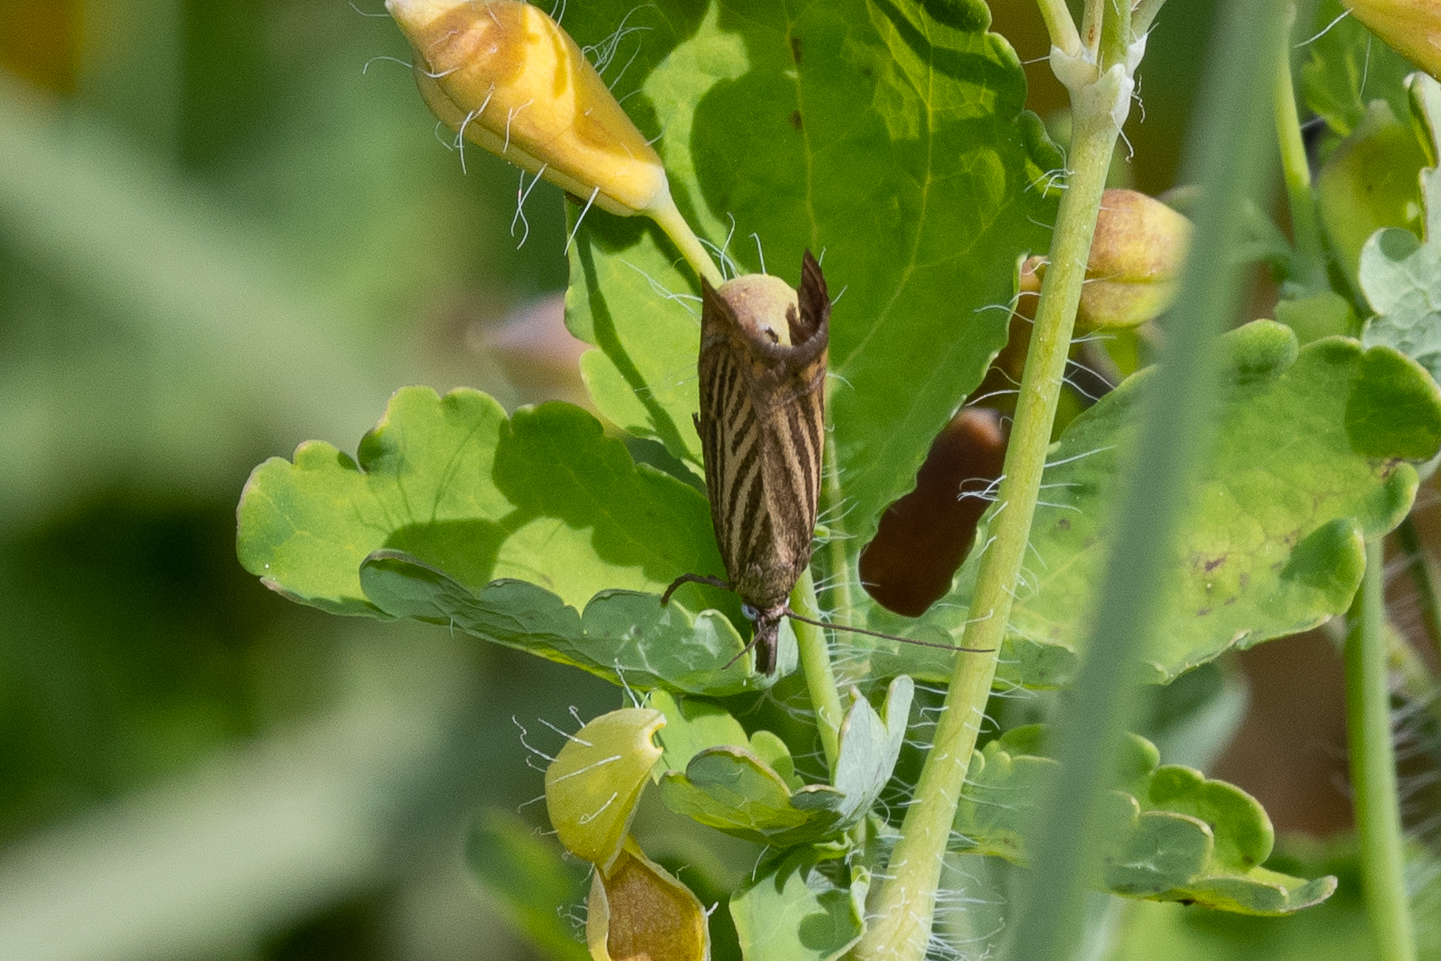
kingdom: Animalia
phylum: Arthropoda
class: Insecta
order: Lepidoptera
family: Crambidae
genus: Chrysoteuchia
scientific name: Chrysoteuchia culmella
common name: Garden grass-veneer
